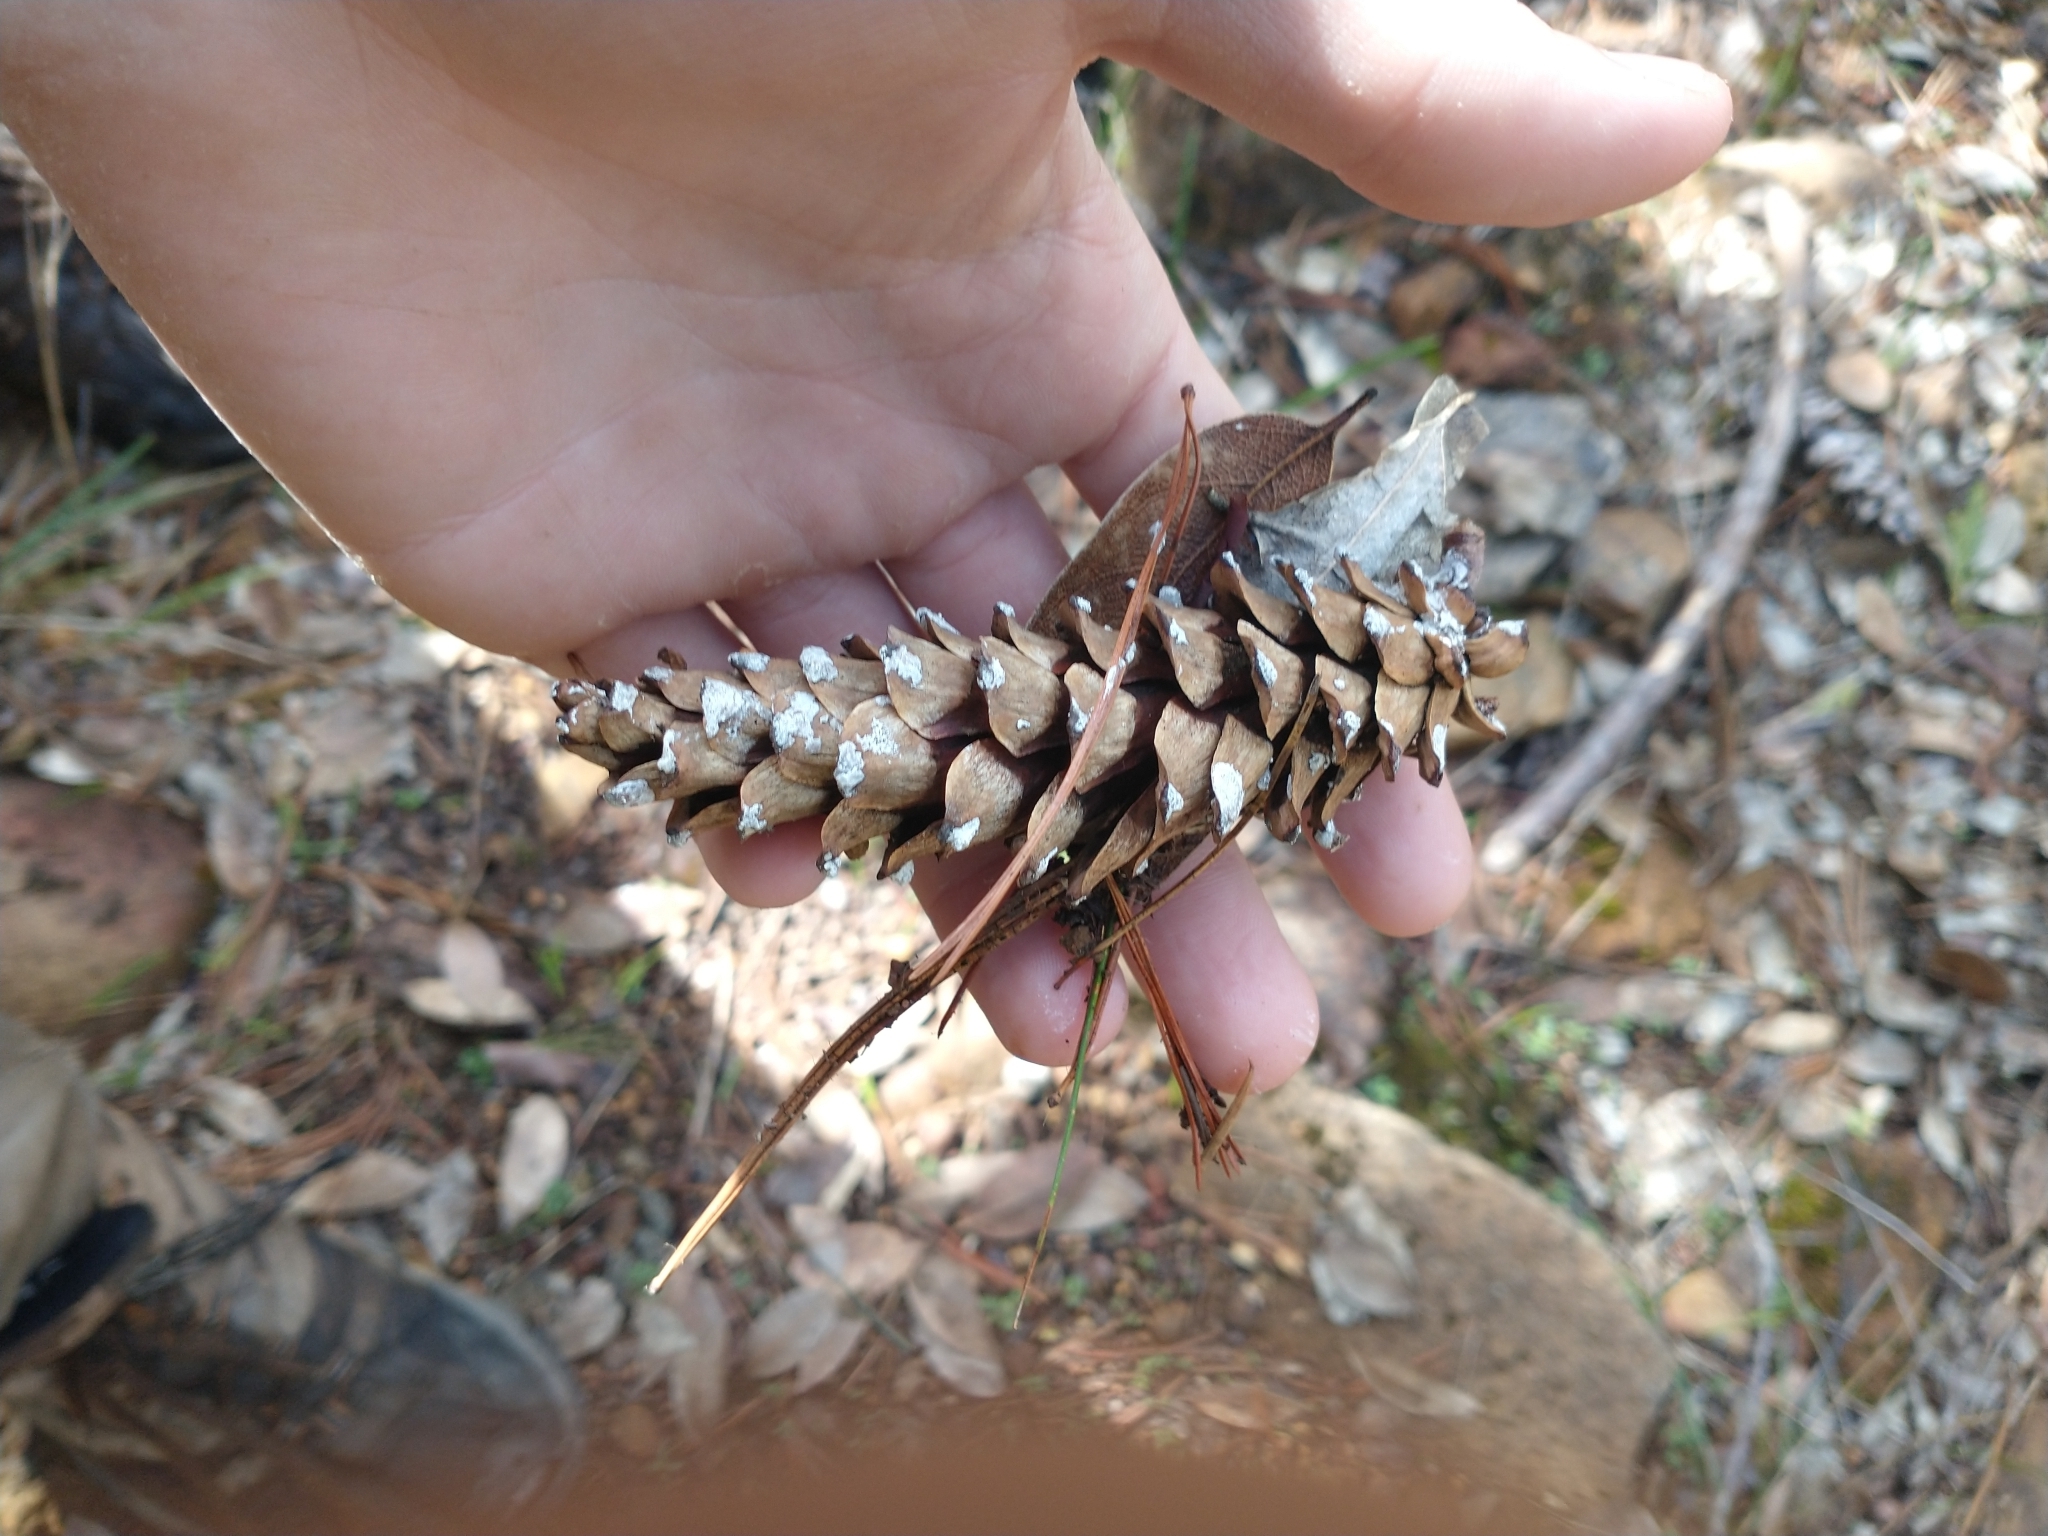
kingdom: Plantae
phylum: Tracheophyta
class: Pinopsida
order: Pinales
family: Pinaceae
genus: Pinus
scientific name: Pinus monticola
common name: Western white pine
